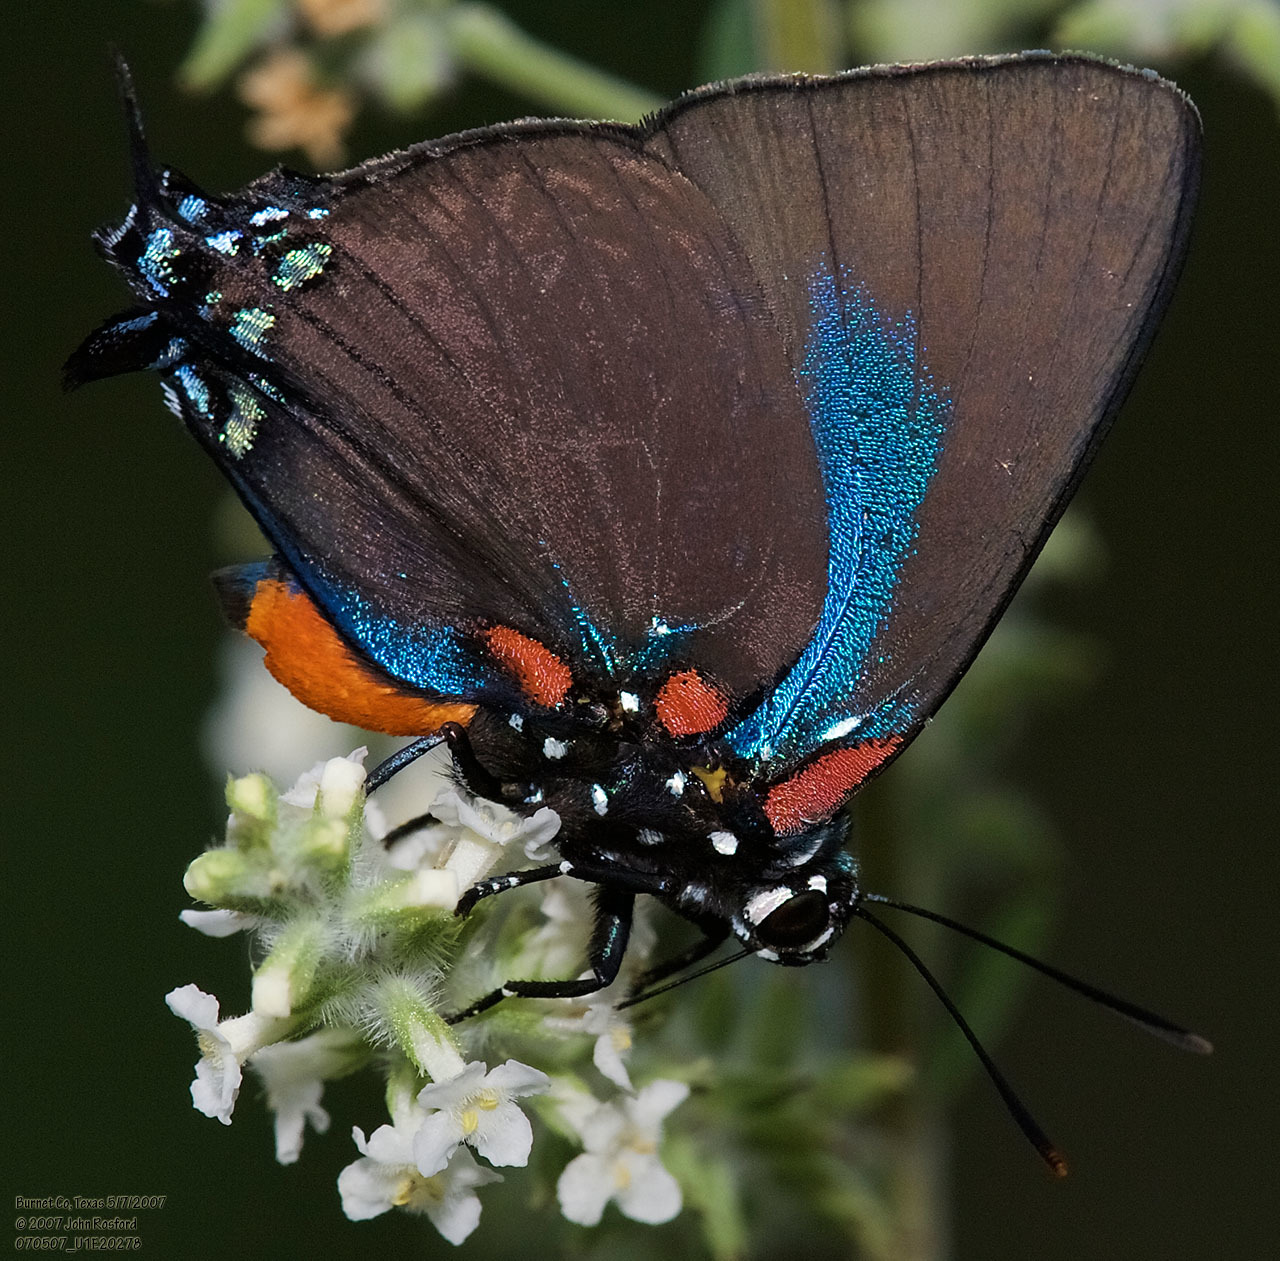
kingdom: Animalia
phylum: Arthropoda
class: Insecta
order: Lepidoptera
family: Lycaenidae
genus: Atlides
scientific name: Atlides halesus
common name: Great purple hairstreak
